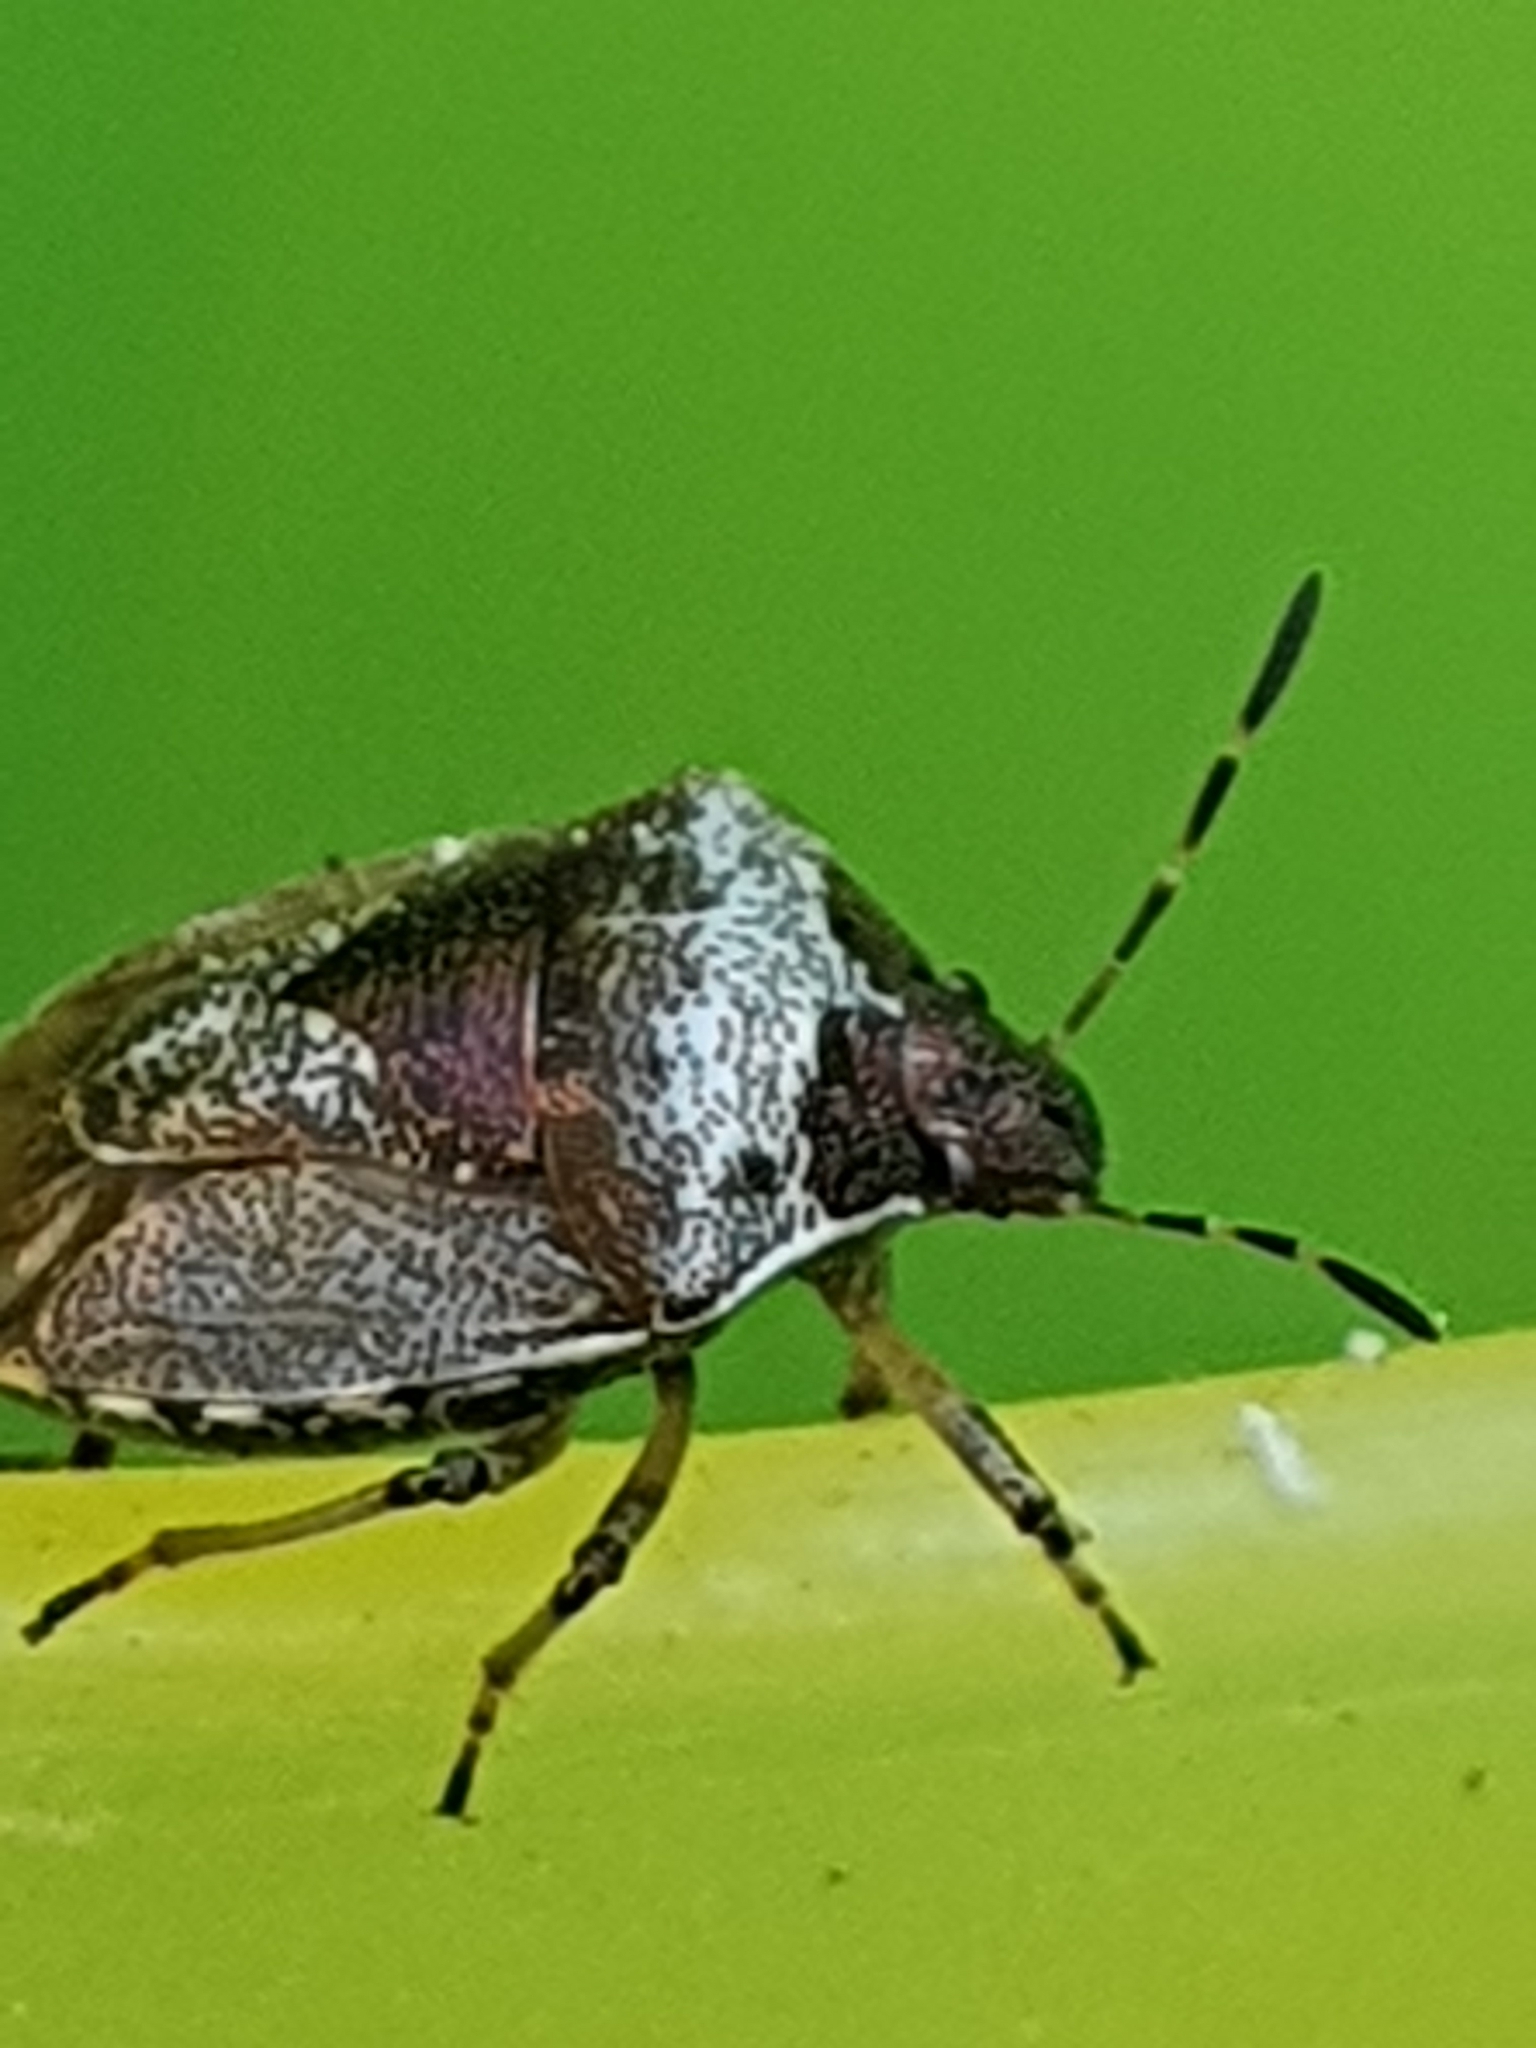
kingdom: Animalia
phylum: Arthropoda
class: Insecta
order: Hemiptera
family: Pentatomidae
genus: Eysarcoris
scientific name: Eysarcoris venustissimus
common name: Woundwort shieldbug
